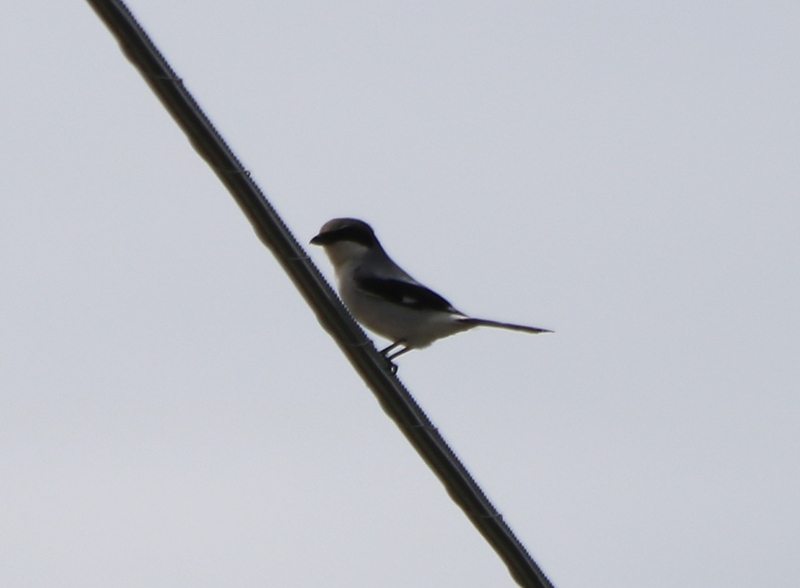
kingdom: Animalia
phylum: Chordata
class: Aves
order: Passeriformes
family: Laniidae
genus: Lanius
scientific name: Lanius ludovicianus
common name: Loggerhead shrike
